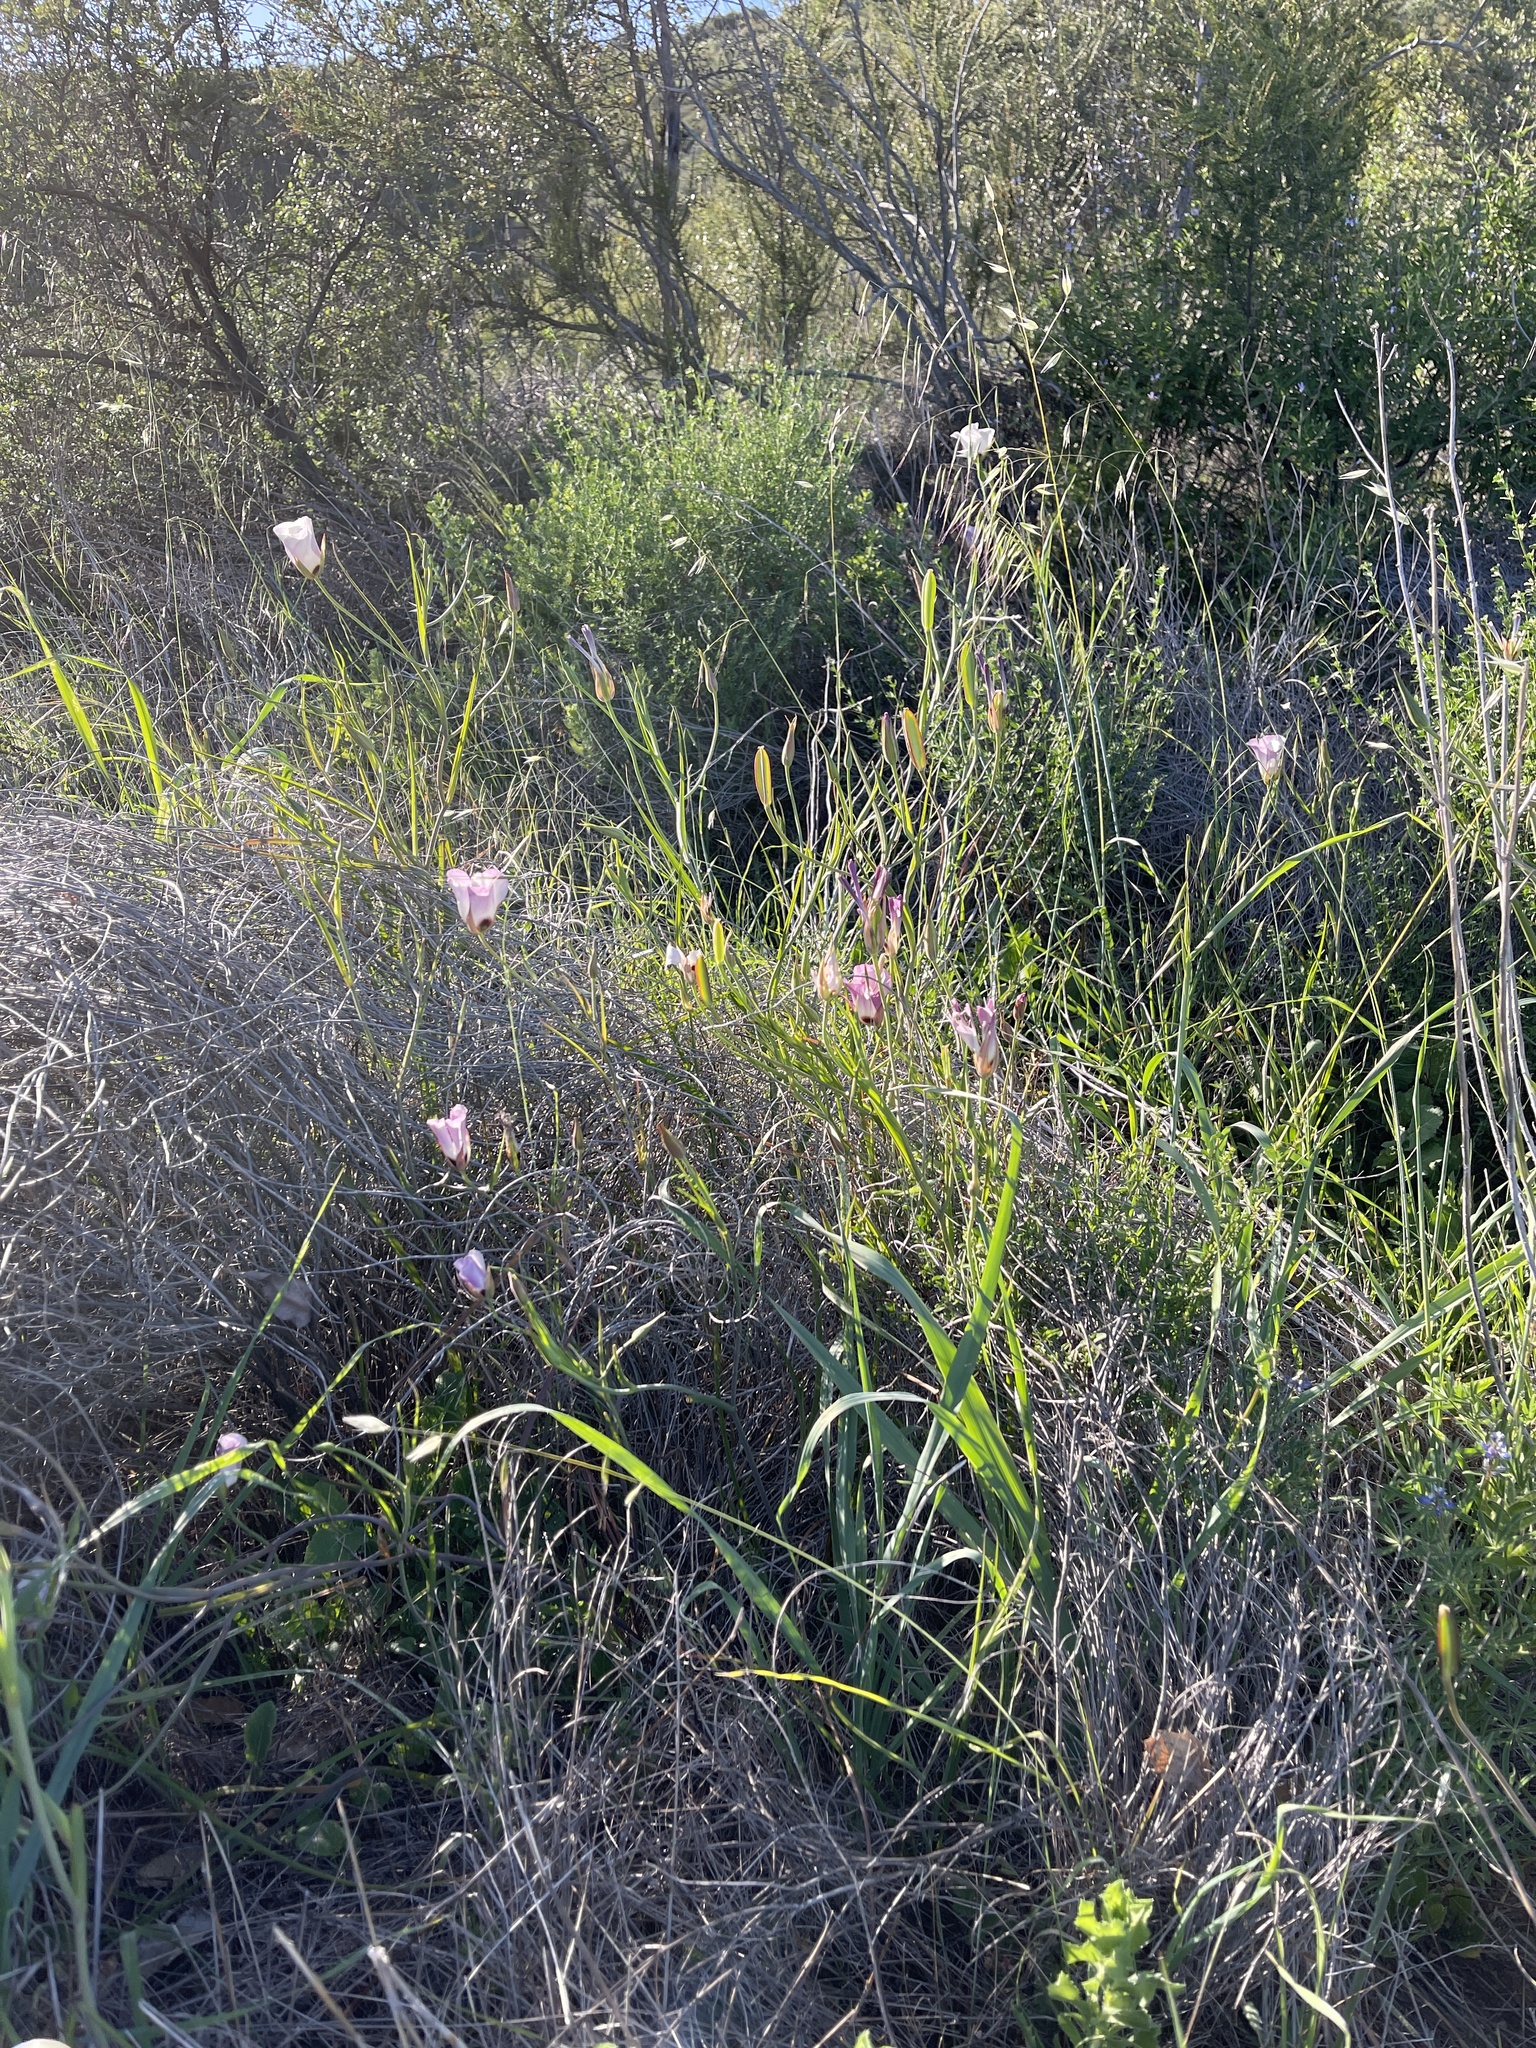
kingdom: Plantae
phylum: Tracheophyta
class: Liliopsida
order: Liliales
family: Liliaceae
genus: Calochortus
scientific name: Calochortus catalinae
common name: Catalina mariposa-lily
